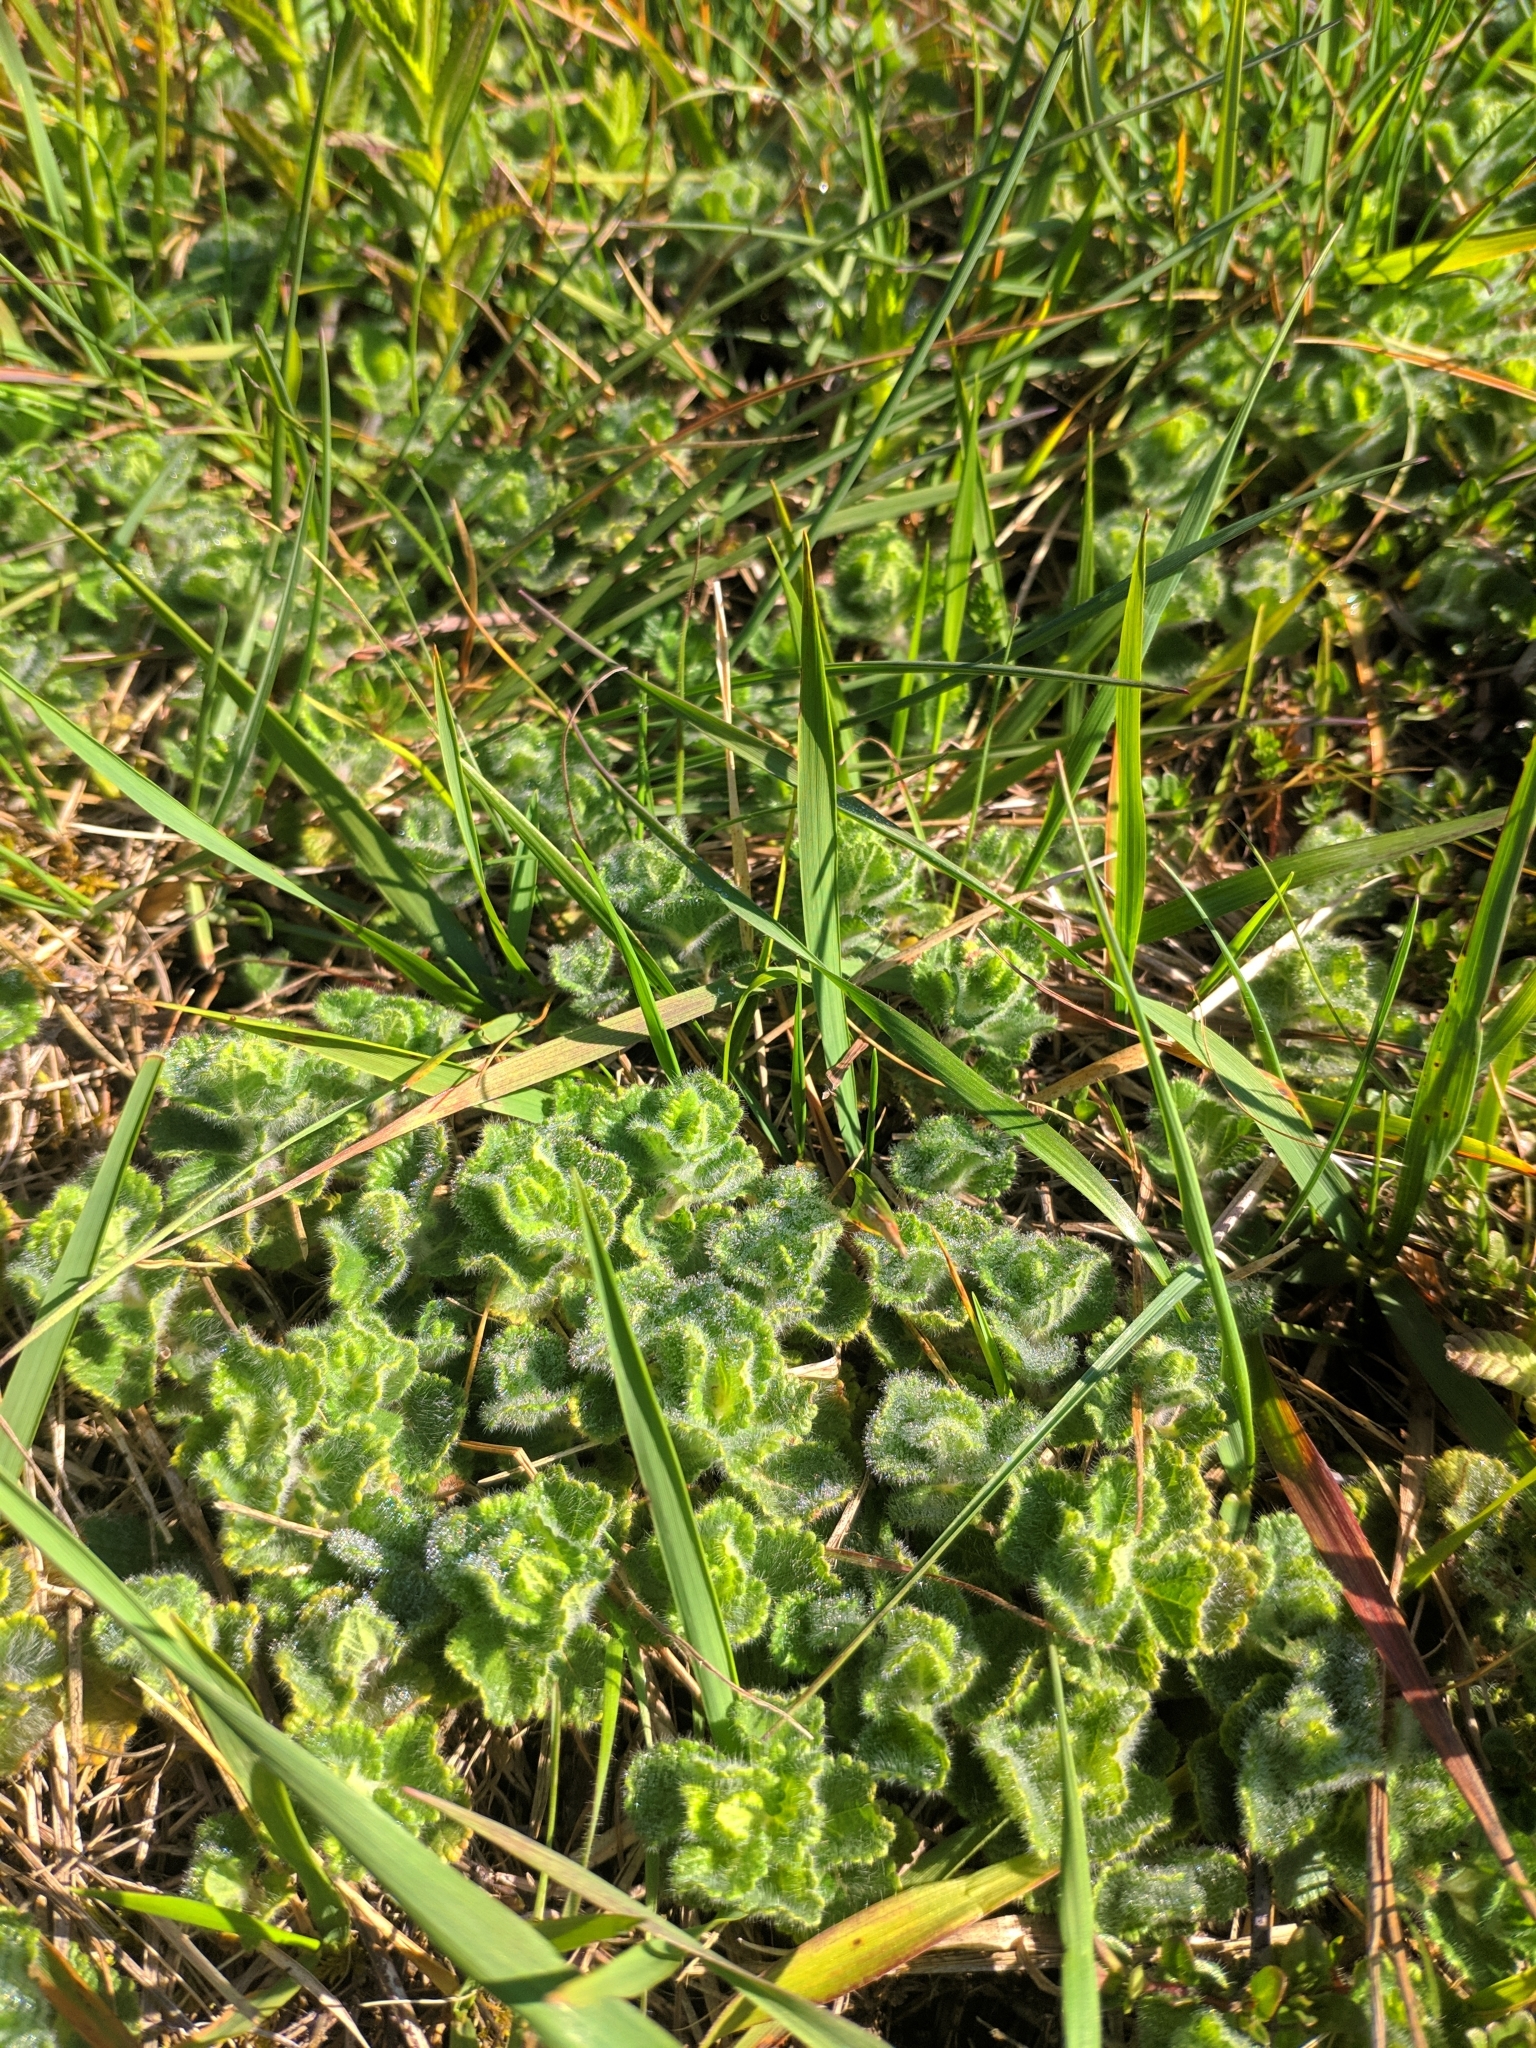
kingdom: Plantae
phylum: Tracheophyta
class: Magnoliopsida
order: Lamiales
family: Lamiaceae
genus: Teucrium
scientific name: Teucrium pyrenaicum
